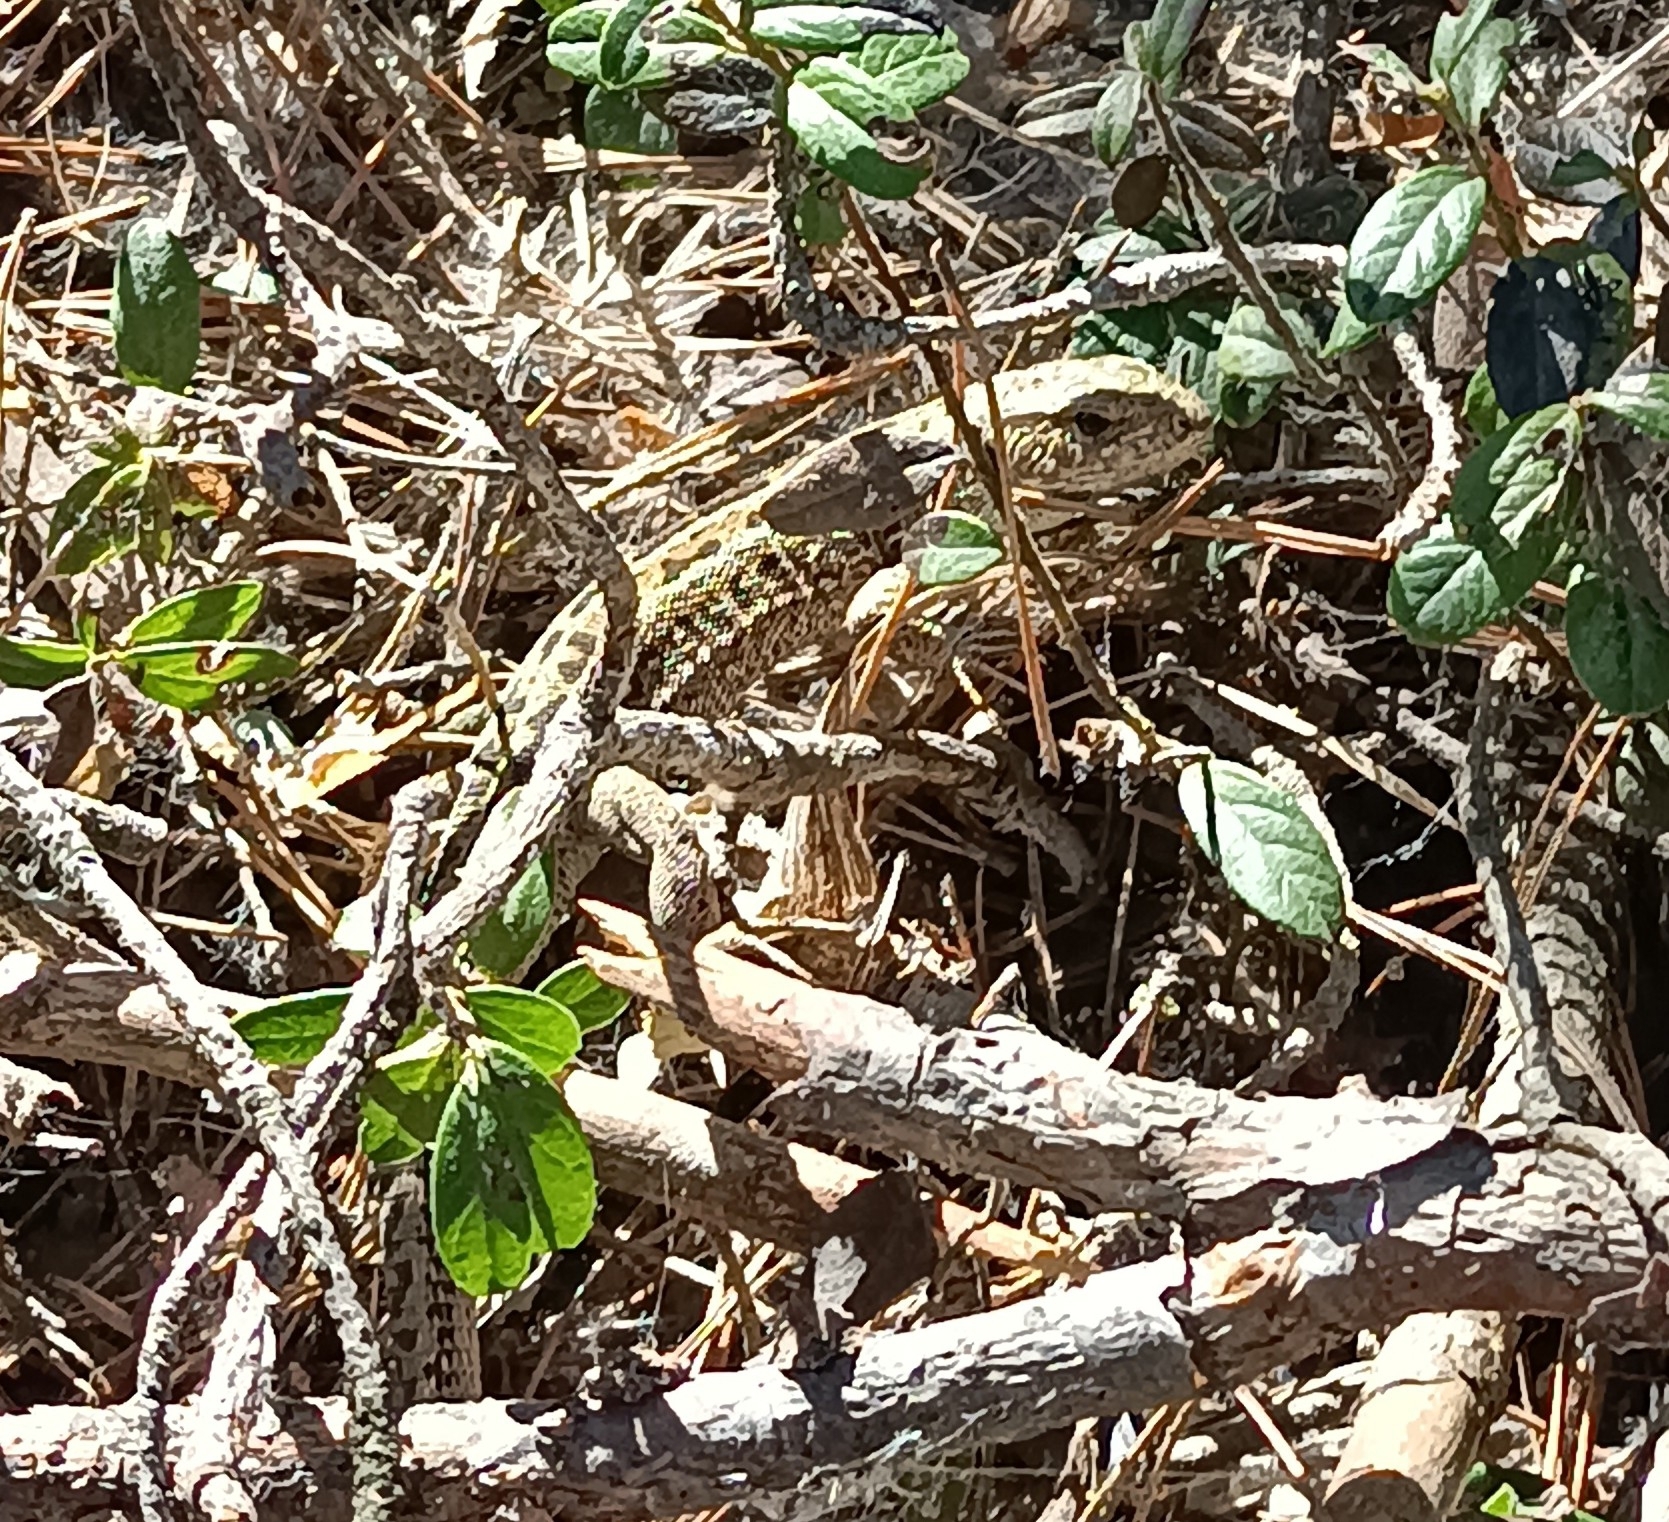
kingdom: Animalia
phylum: Chordata
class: Squamata
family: Lacertidae
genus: Lacerta
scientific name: Lacerta agilis
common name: Sand lizard
